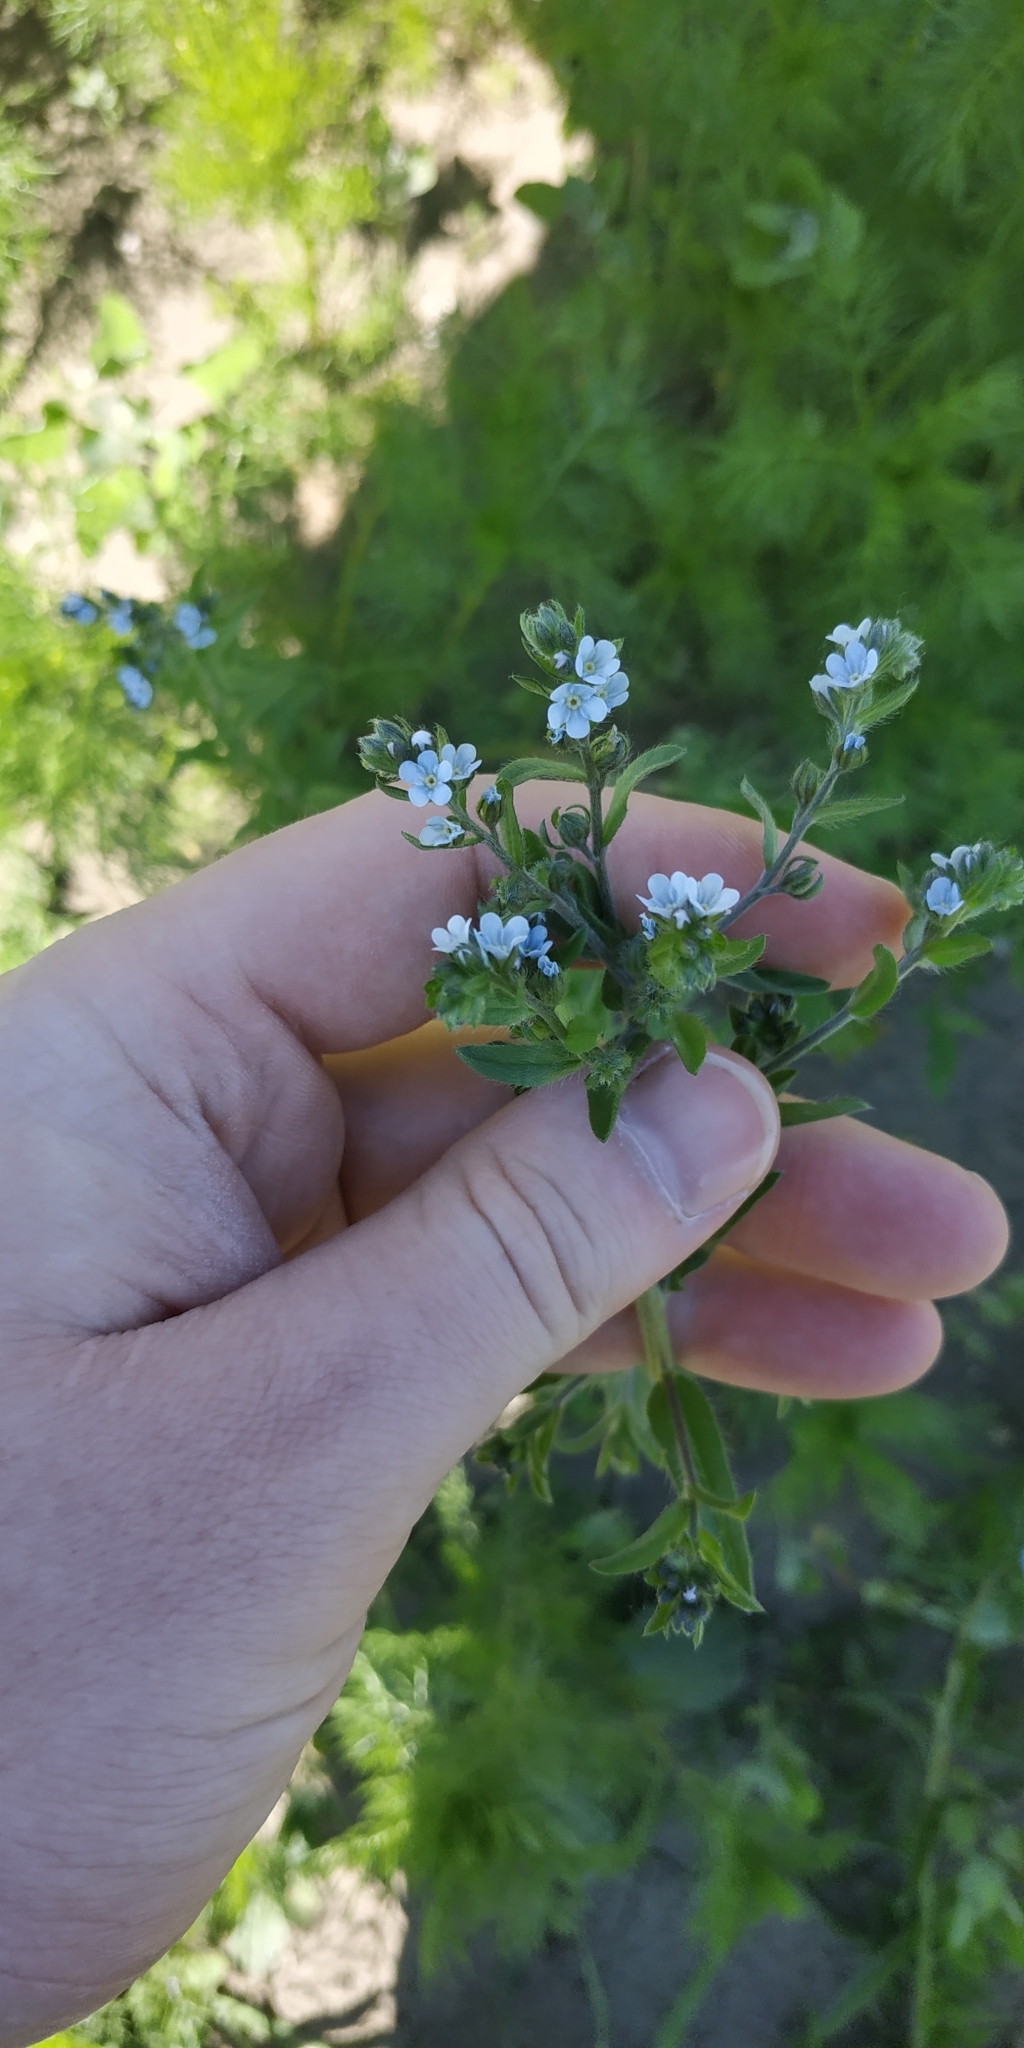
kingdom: Plantae
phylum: Tracheophyta
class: Magnoliopsida
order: Boraginales
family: Boraginaceae
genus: Lappula
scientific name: Lappula squarrosa
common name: European stickseed
